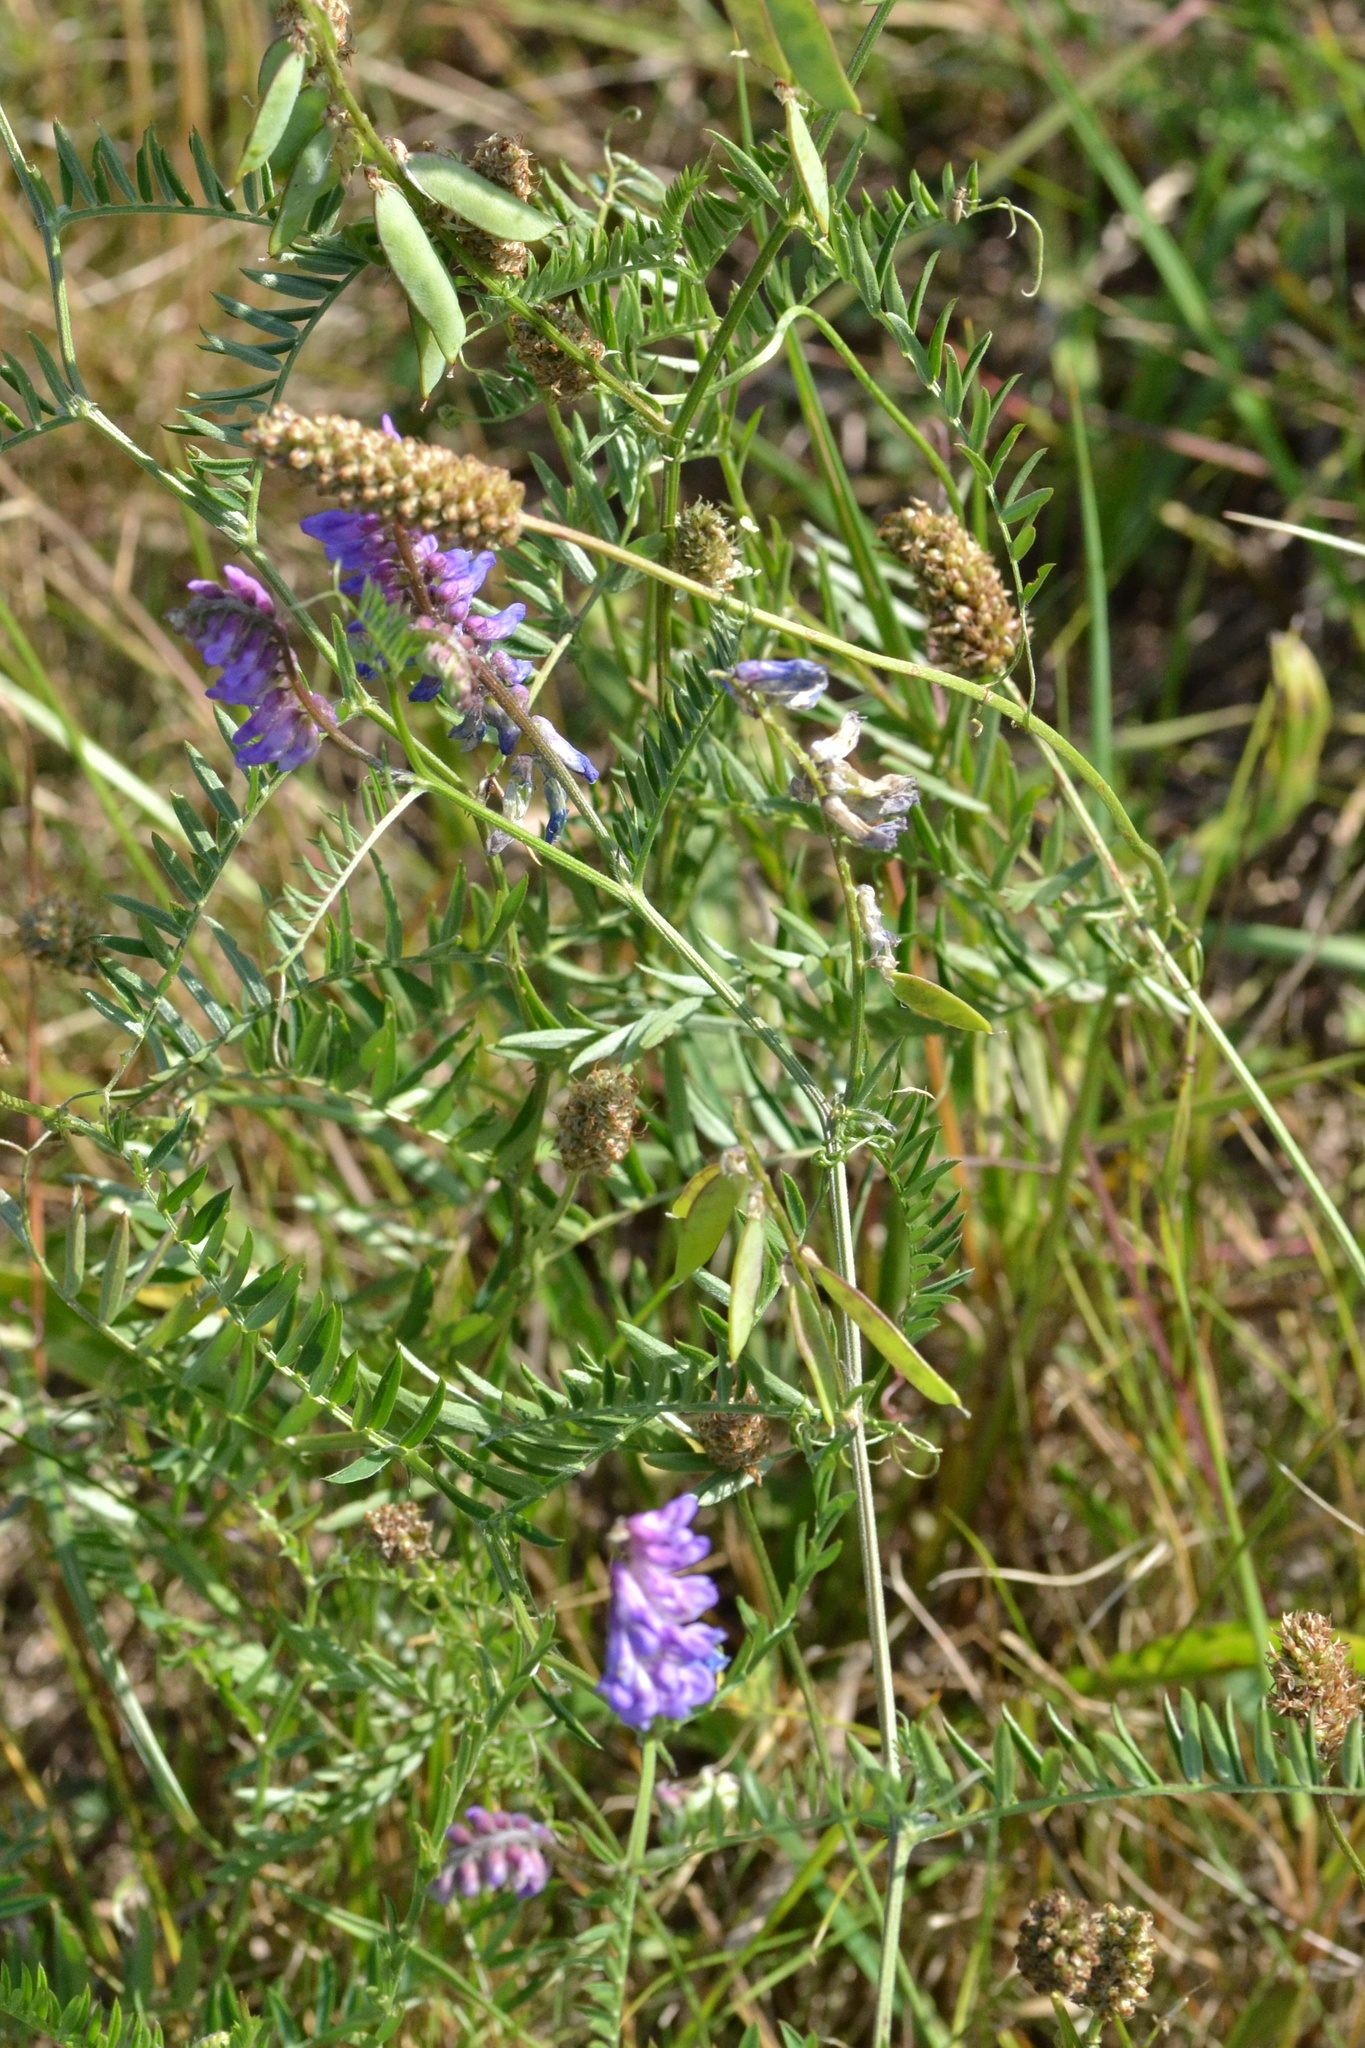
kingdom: Plantae
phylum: Tracheophyta
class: Magnoliopsida
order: Fabales
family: Fabaceae
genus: Vicia
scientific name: Vicia cracca
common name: Bird vetch
